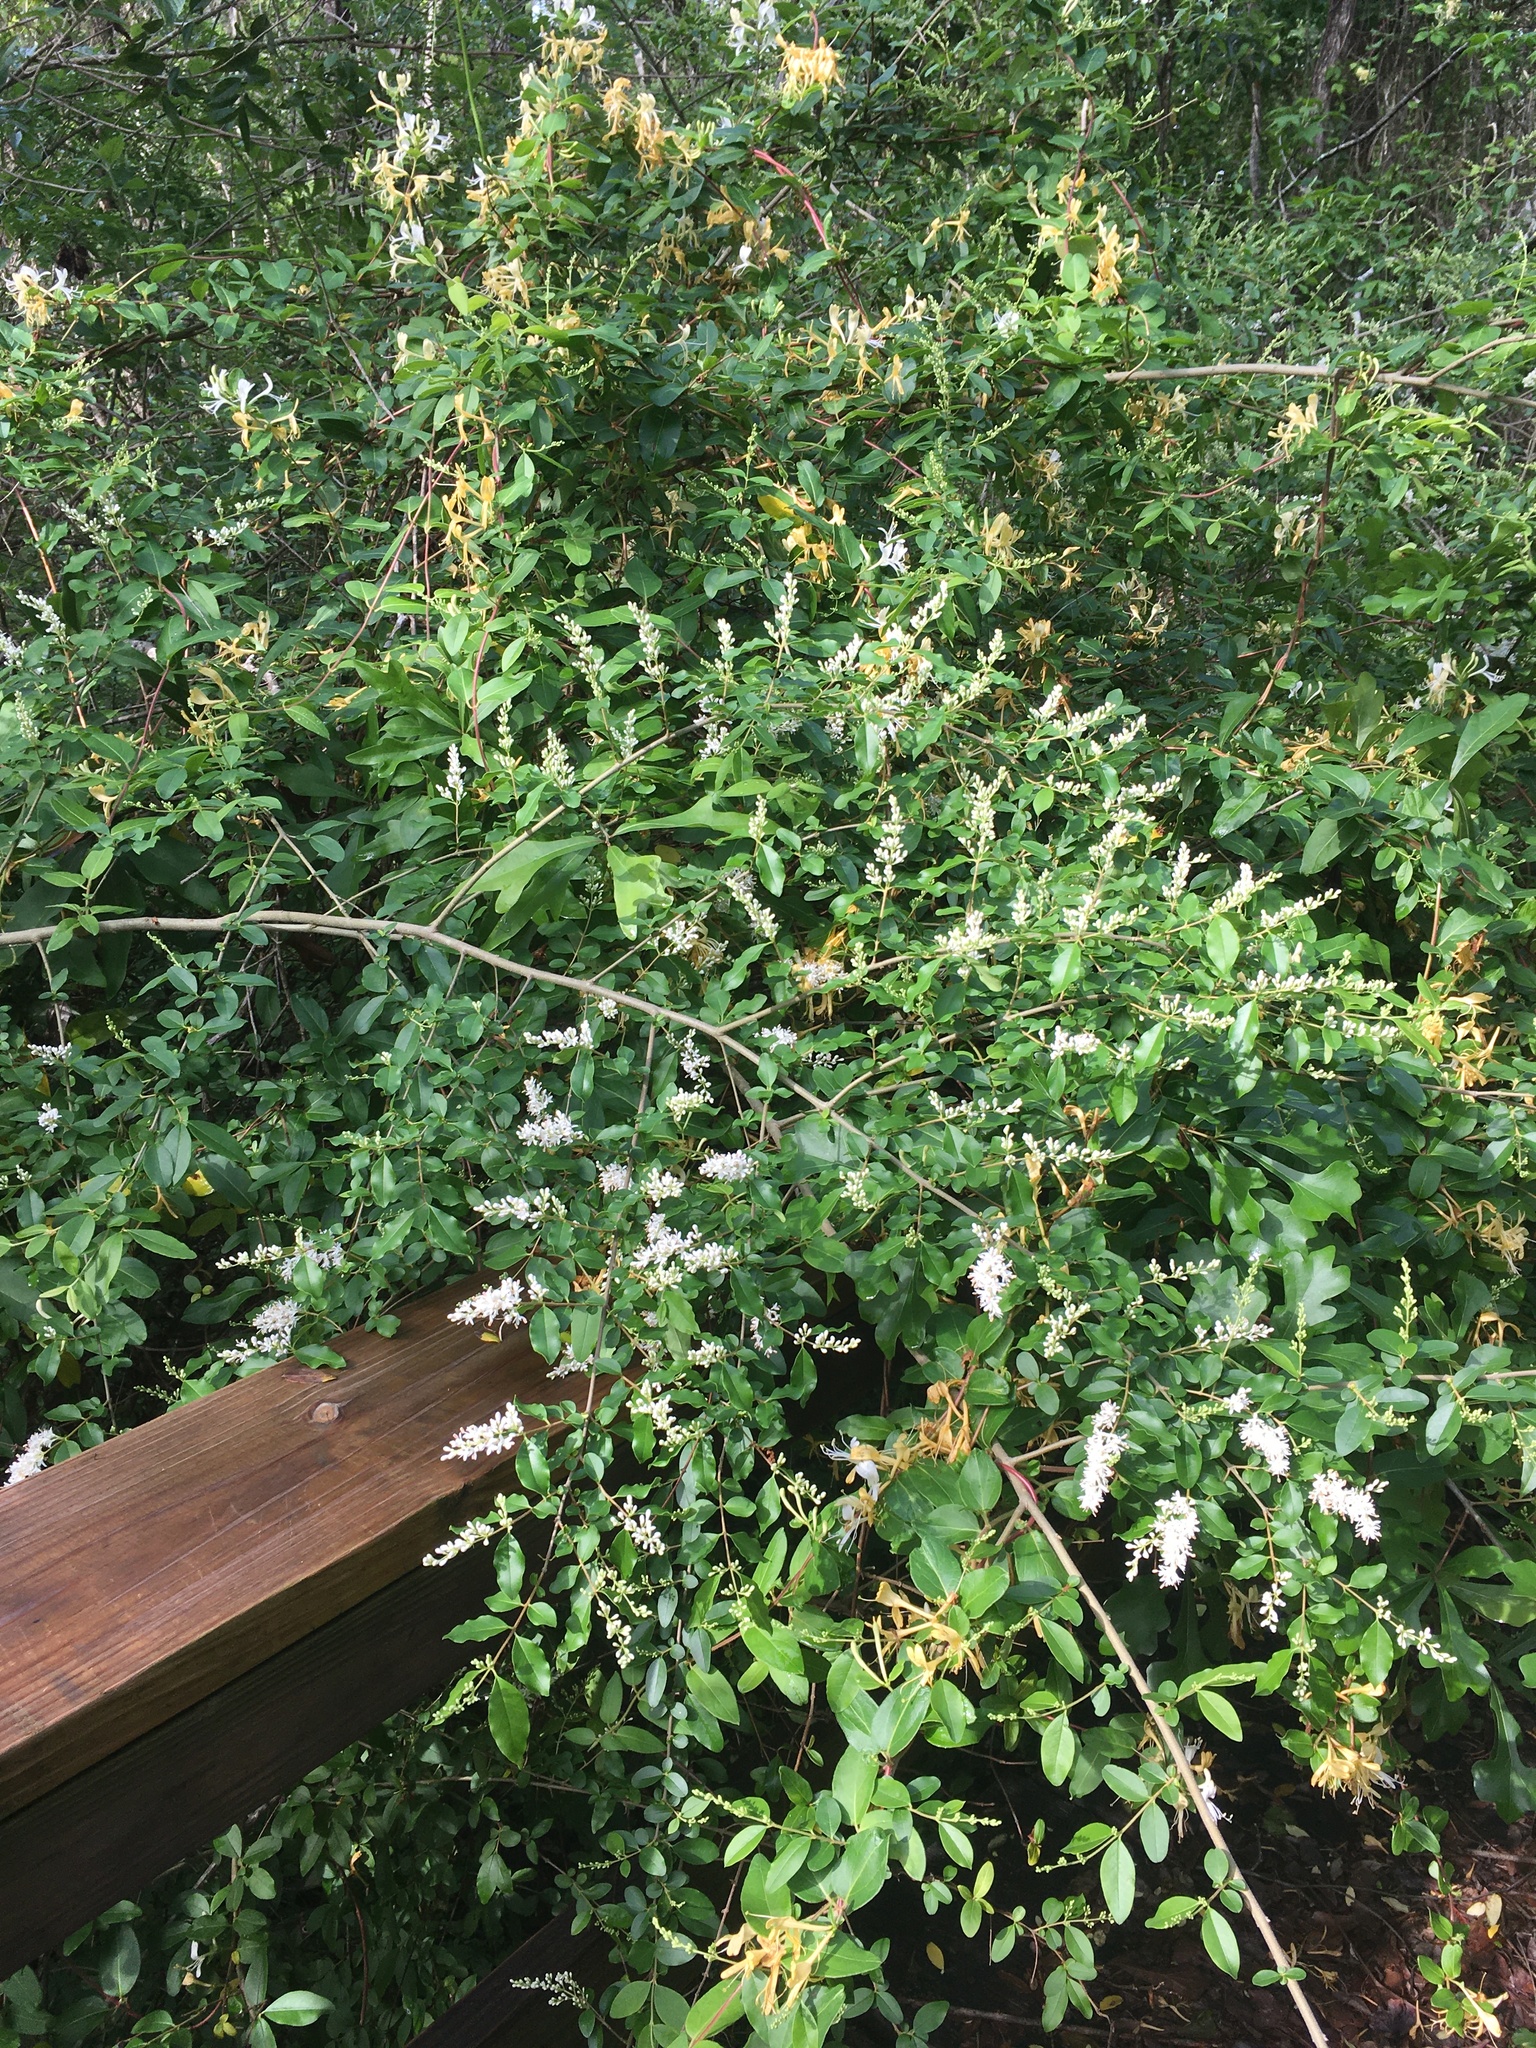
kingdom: Plantae
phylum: Tracheophyta
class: Magnoliopsida
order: Lamiales
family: Oleaceae
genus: Ligustrum
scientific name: Ligustrum sinense
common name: Chinese privet
